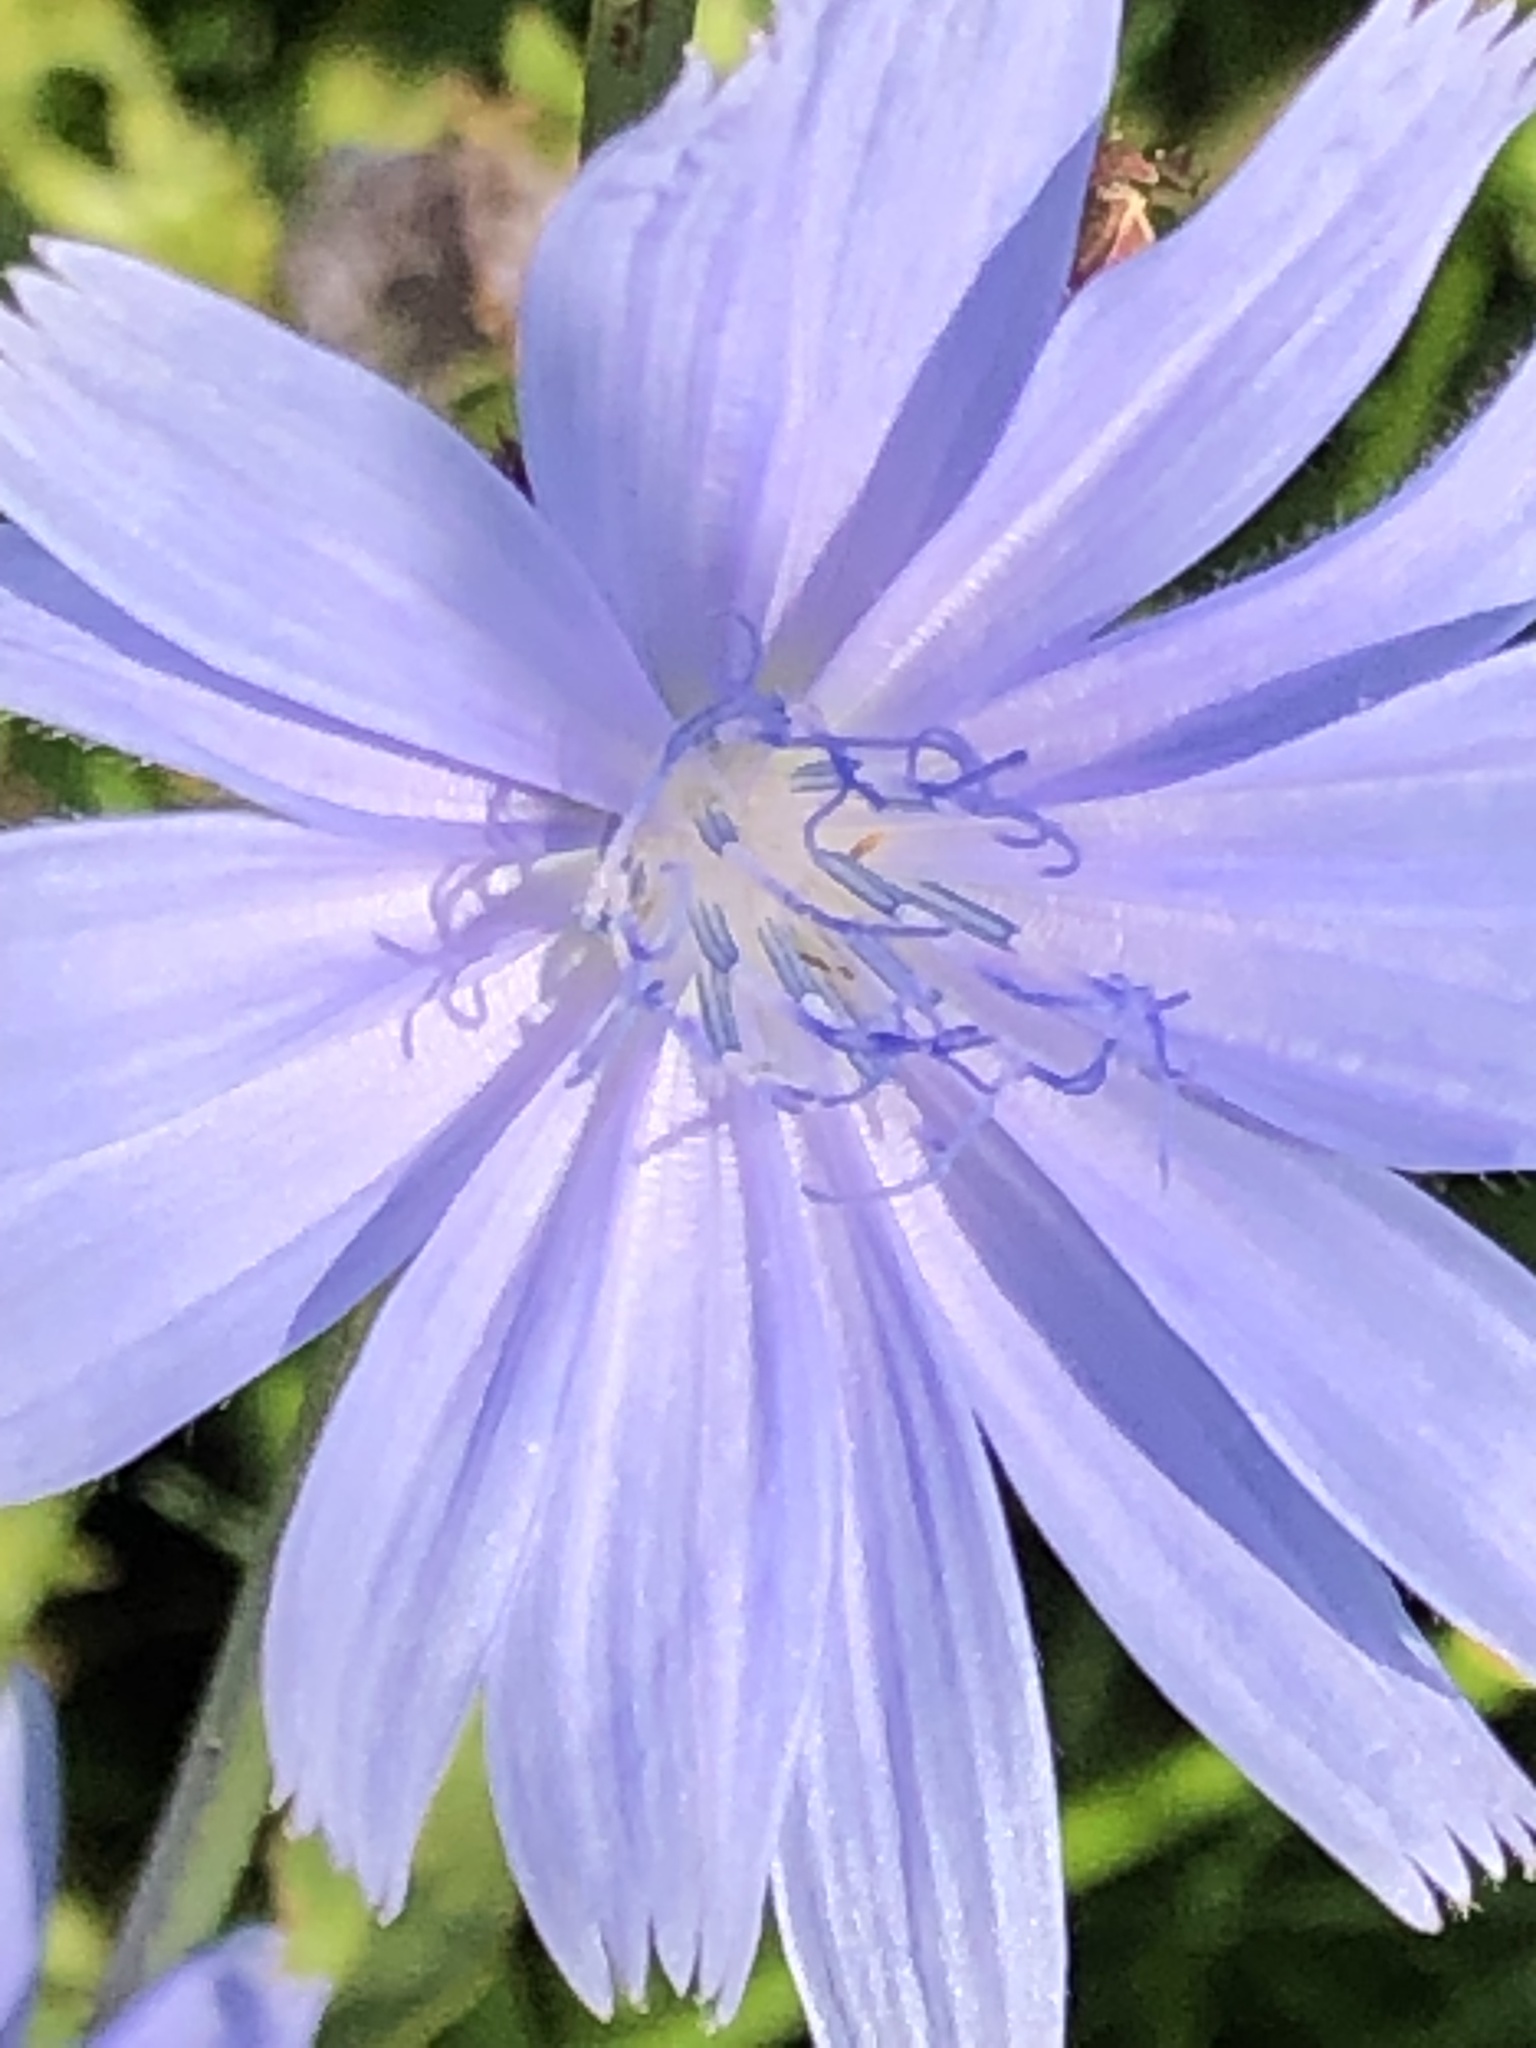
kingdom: Plantae
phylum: Tracheophyta
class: Magnoliopsida
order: Asterales
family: Asteraceae
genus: Cichorium
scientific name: Cichorium intybus
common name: Chicory
